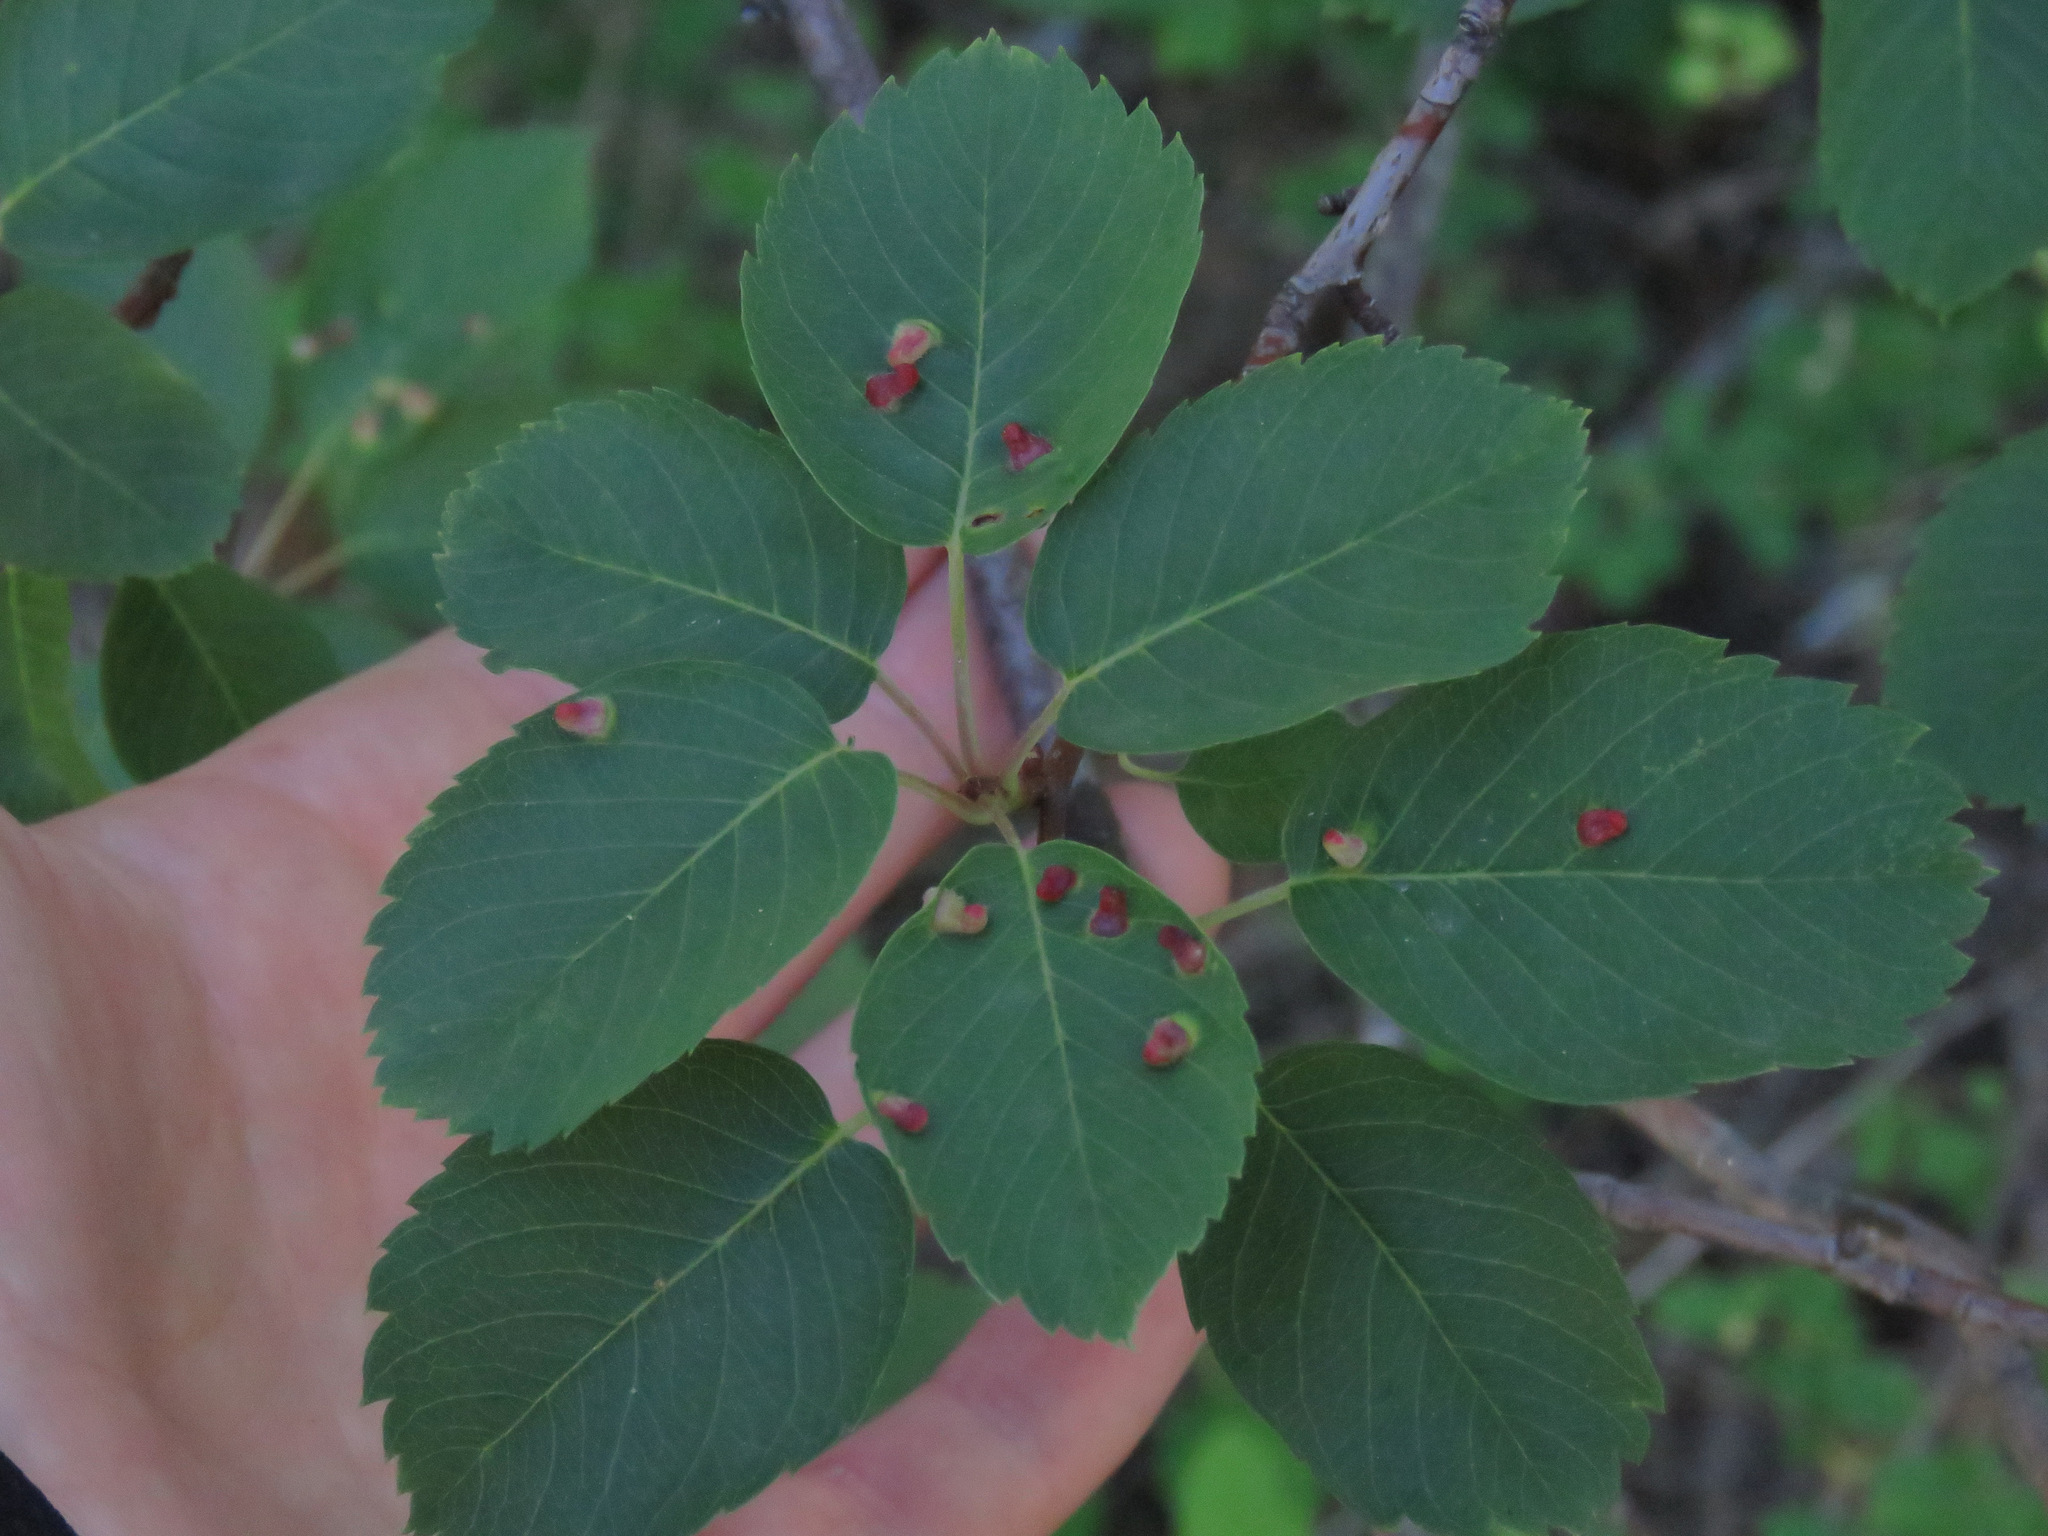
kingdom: Plantae
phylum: Tracheophyta
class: Magnoliopsida
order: Rosales
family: Rosaceae
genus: Amelanchier
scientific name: Amelanchier alnifolia
